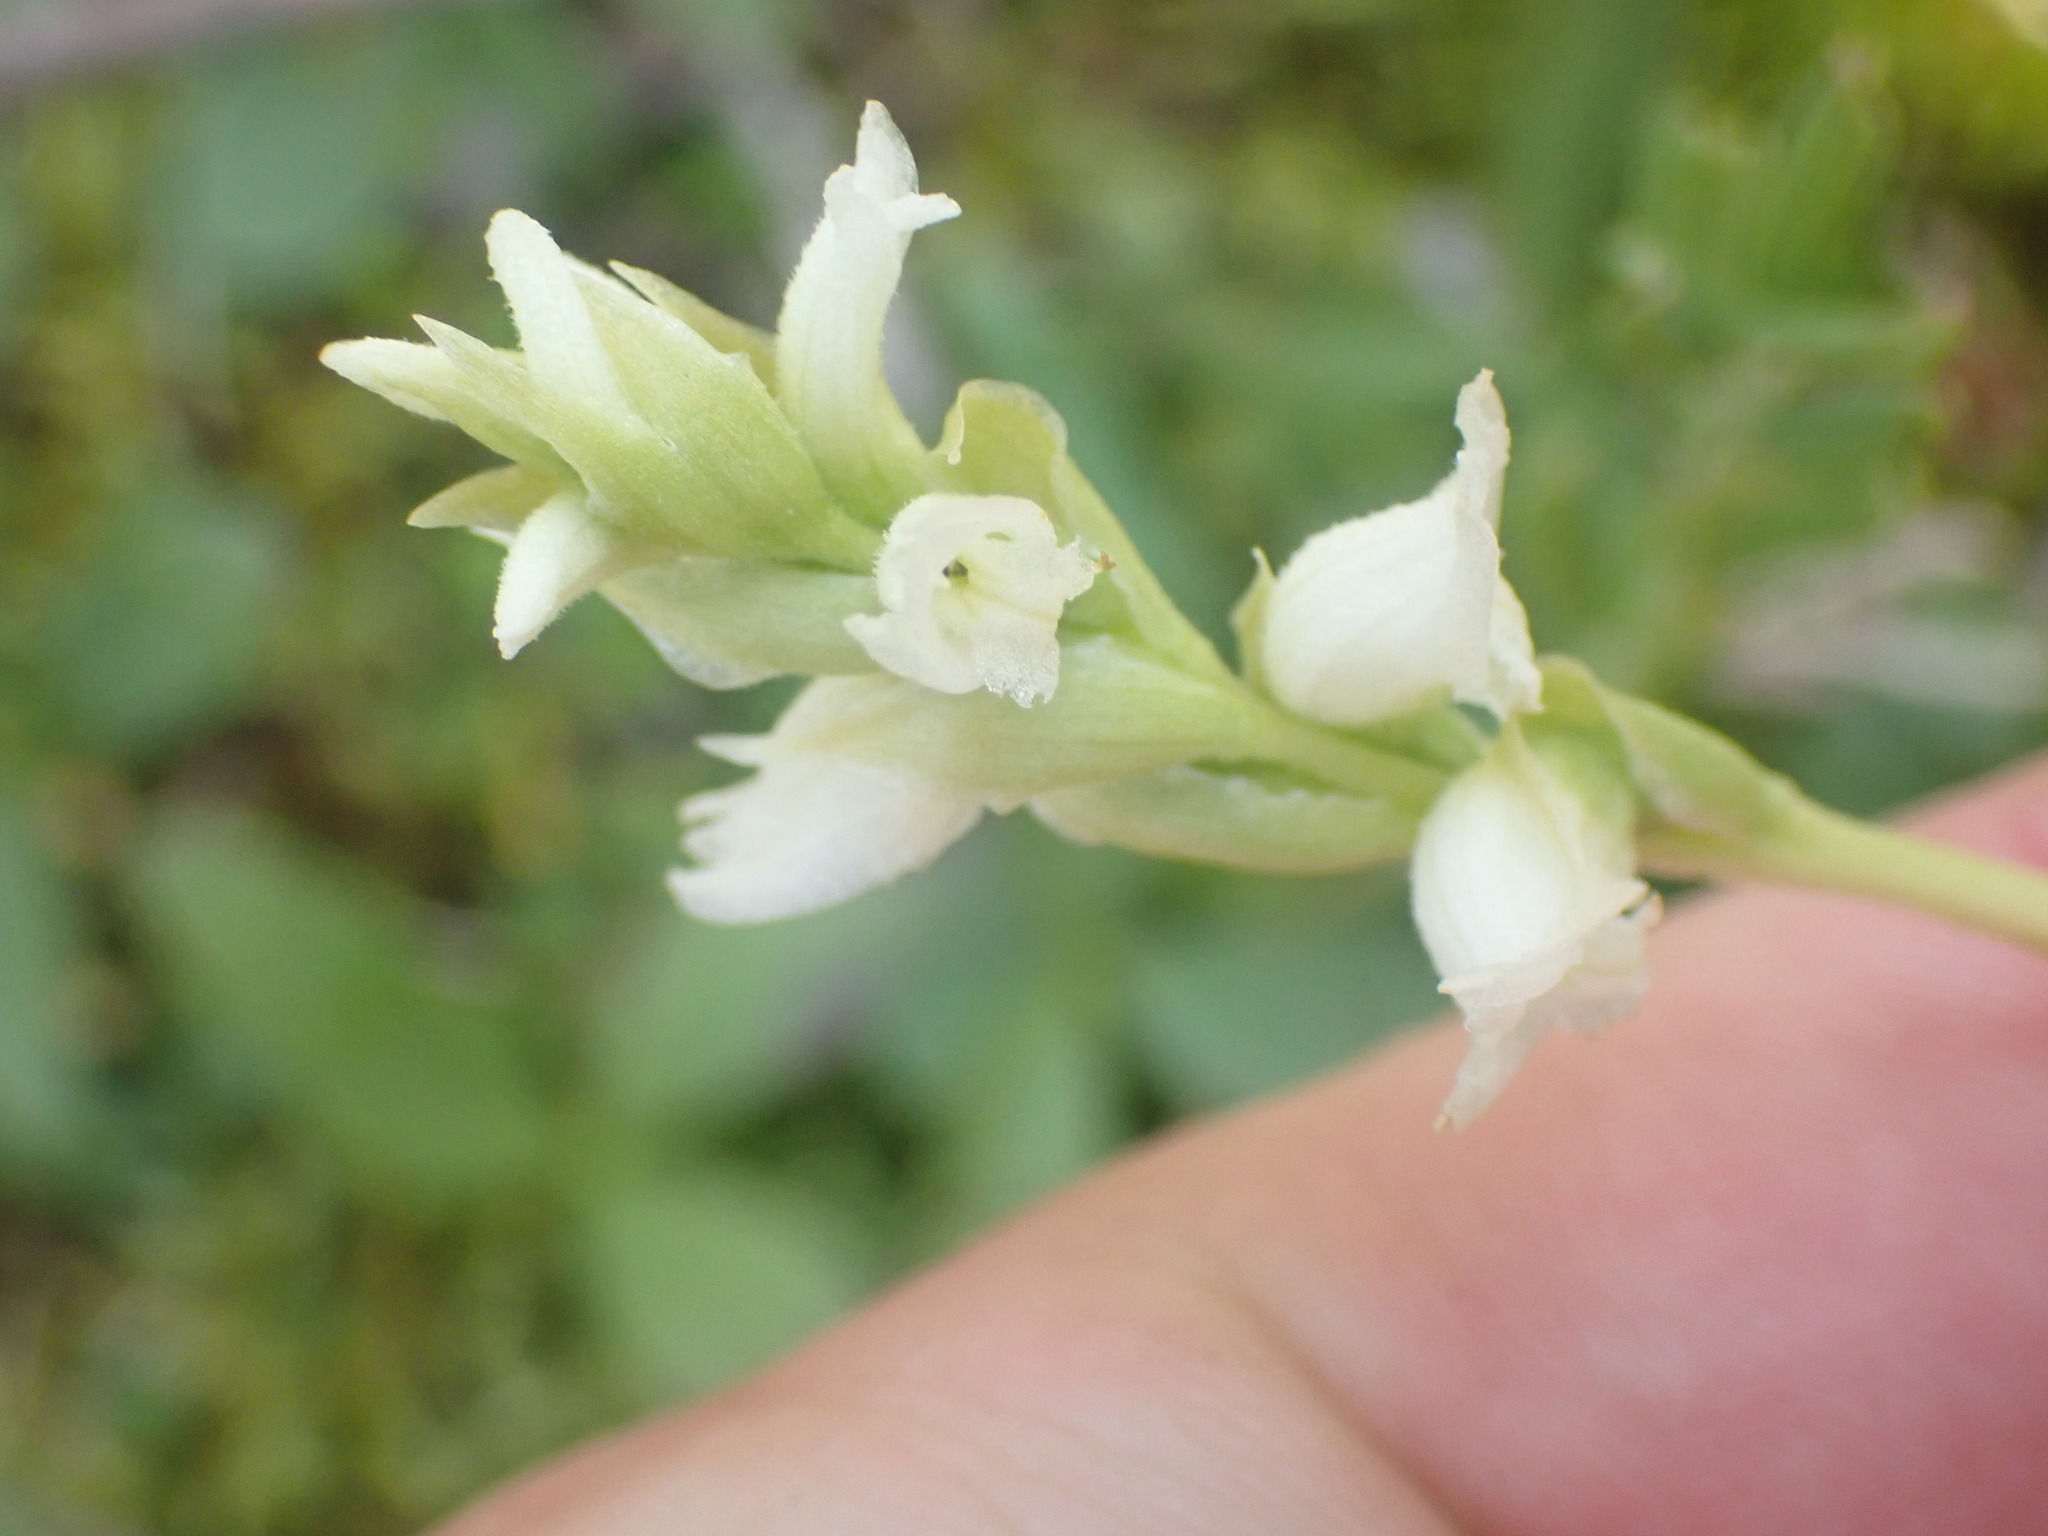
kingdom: Plantae
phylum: Tracheophyta
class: Liliopsida
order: Asparagales
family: Orchidaceae
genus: Spiranthes
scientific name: Spiranthes romanzoffiana
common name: Irish lady's-tresses
